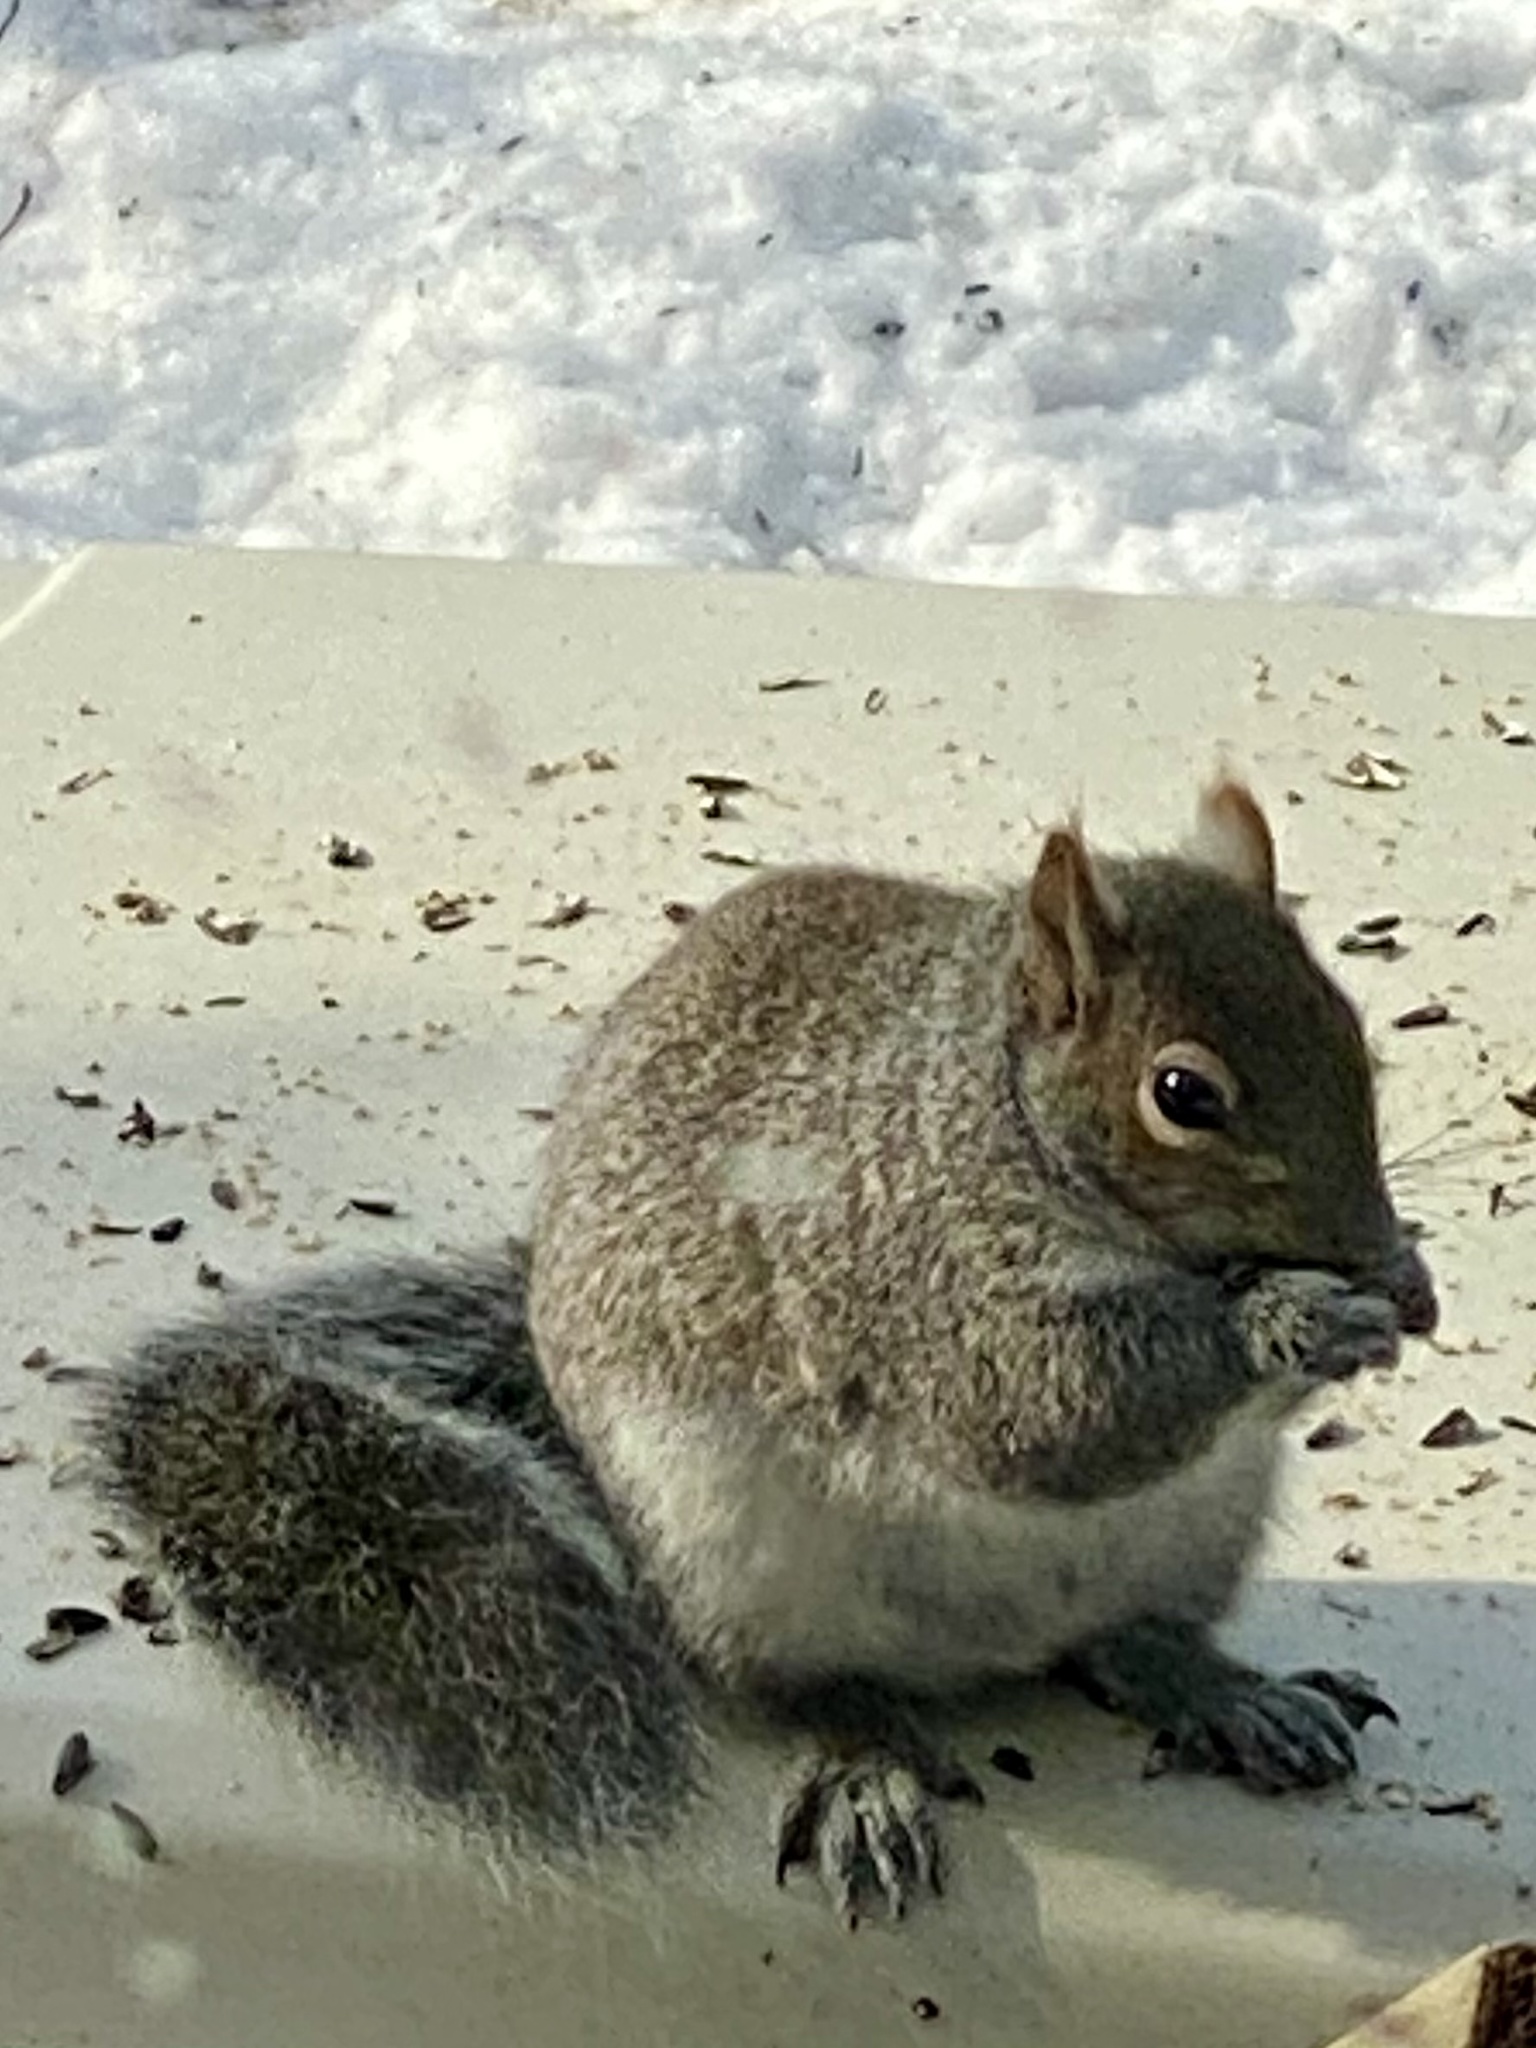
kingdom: Animalia
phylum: Chordata
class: Mammalia
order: Rodentia
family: Sciuridae
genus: Sciurus
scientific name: Sciurus carolinensis
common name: Eastern gray squirrel
